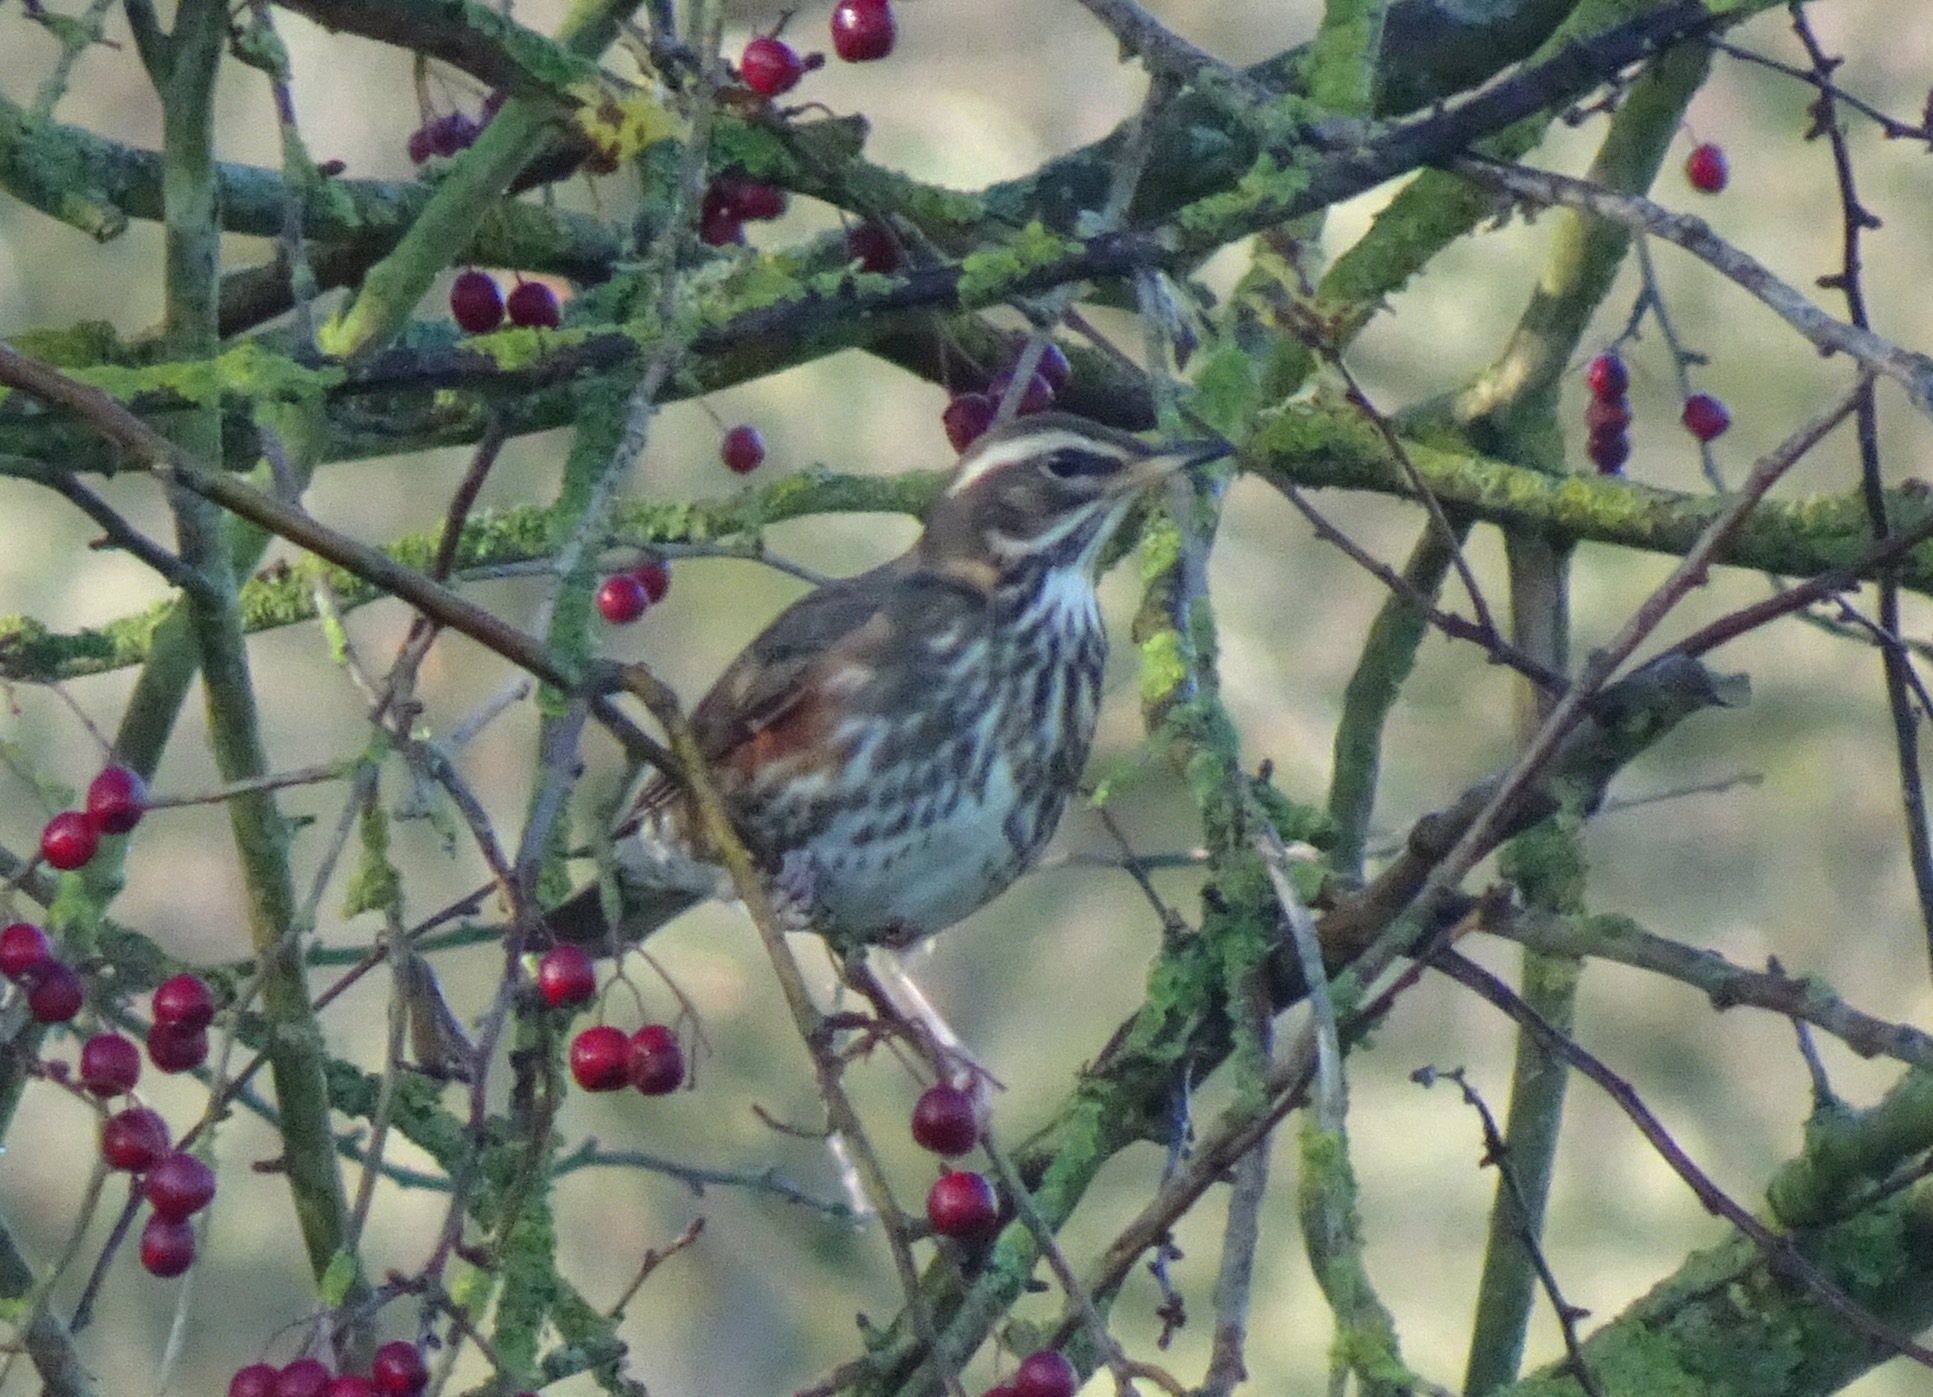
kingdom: Animalia
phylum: Chordata
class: Aves
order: Passeriformes
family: Turdidae
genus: Turdus
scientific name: Turdus iliacus
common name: Redwing
